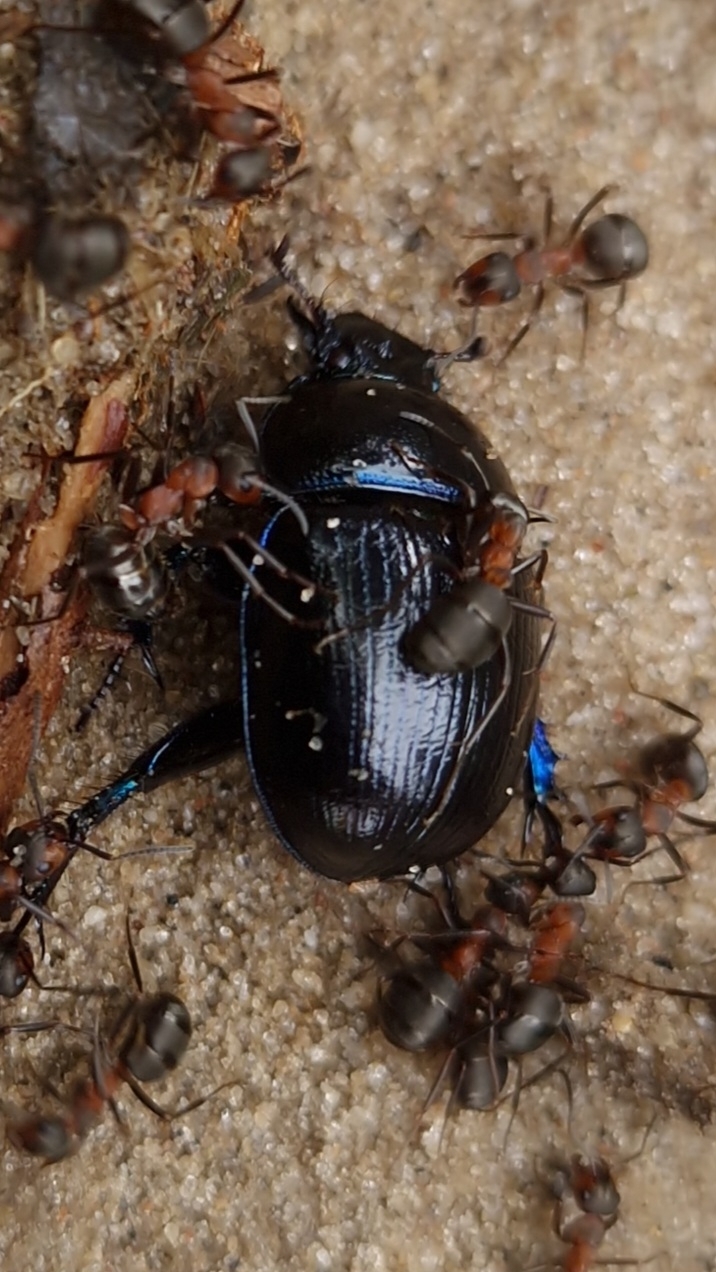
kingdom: Animalia
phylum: Arthropoda
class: Insecta
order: Coleoptera
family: Geotrupidae
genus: Anoplotrupes
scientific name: Anoplotrupes stercorosus
